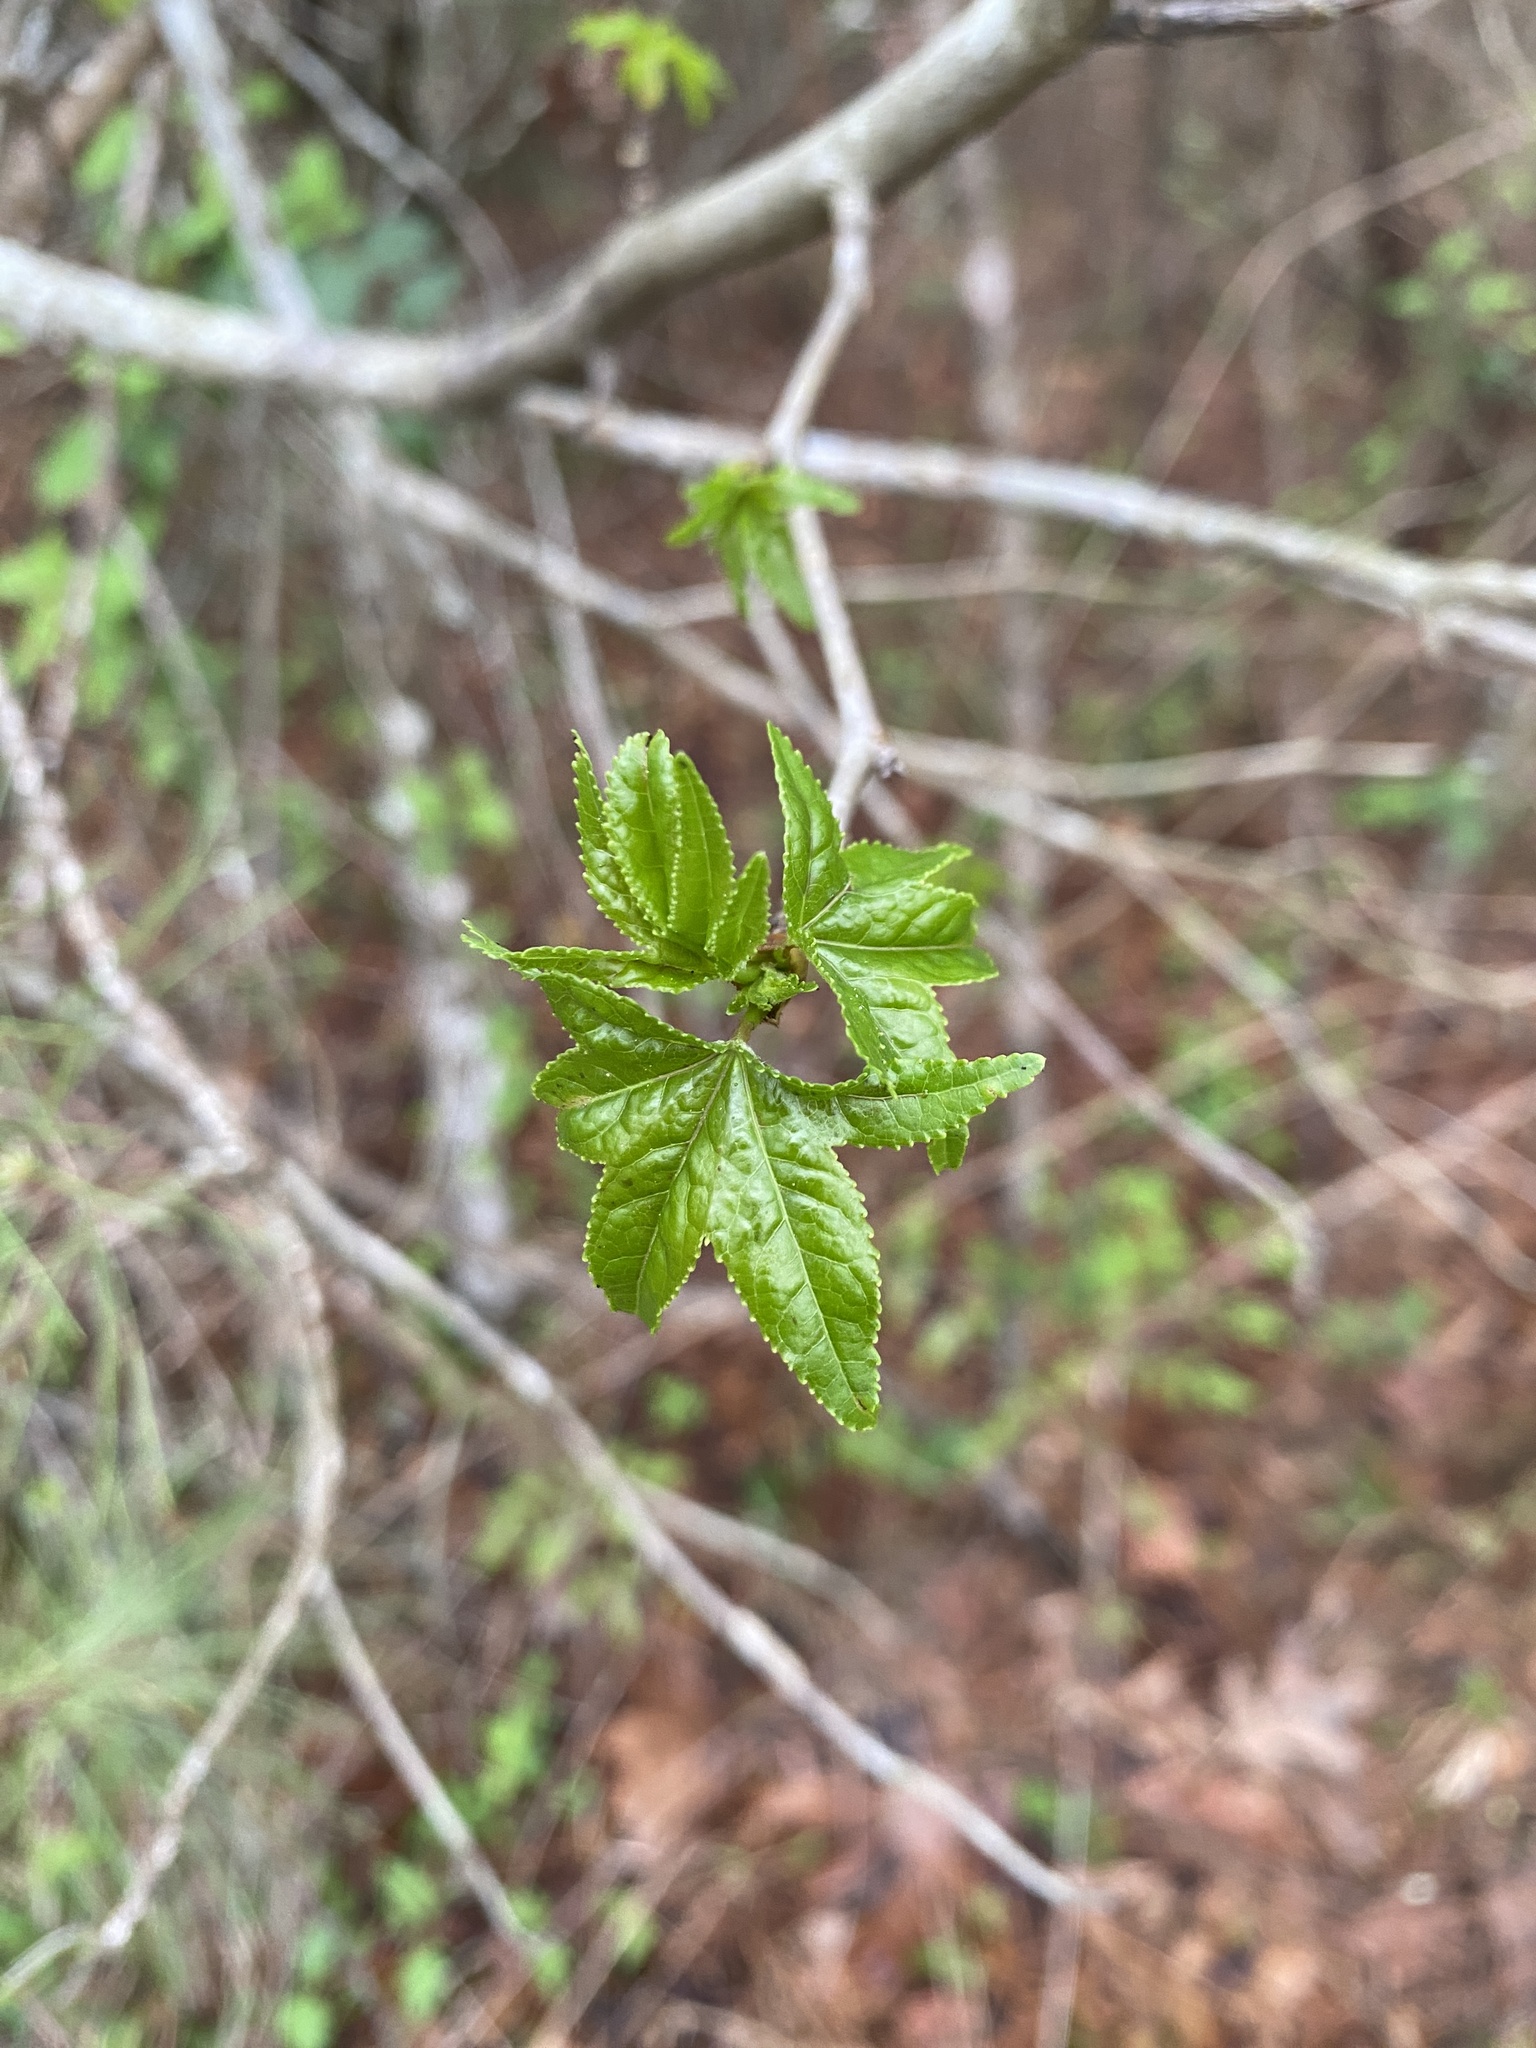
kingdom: Plantae
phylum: Tracheophyta
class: Magnoliopsida
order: Saxifragales
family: Altingiaceae
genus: Liquidambar
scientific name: Liquidambar styraciflua
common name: Sweet gum
